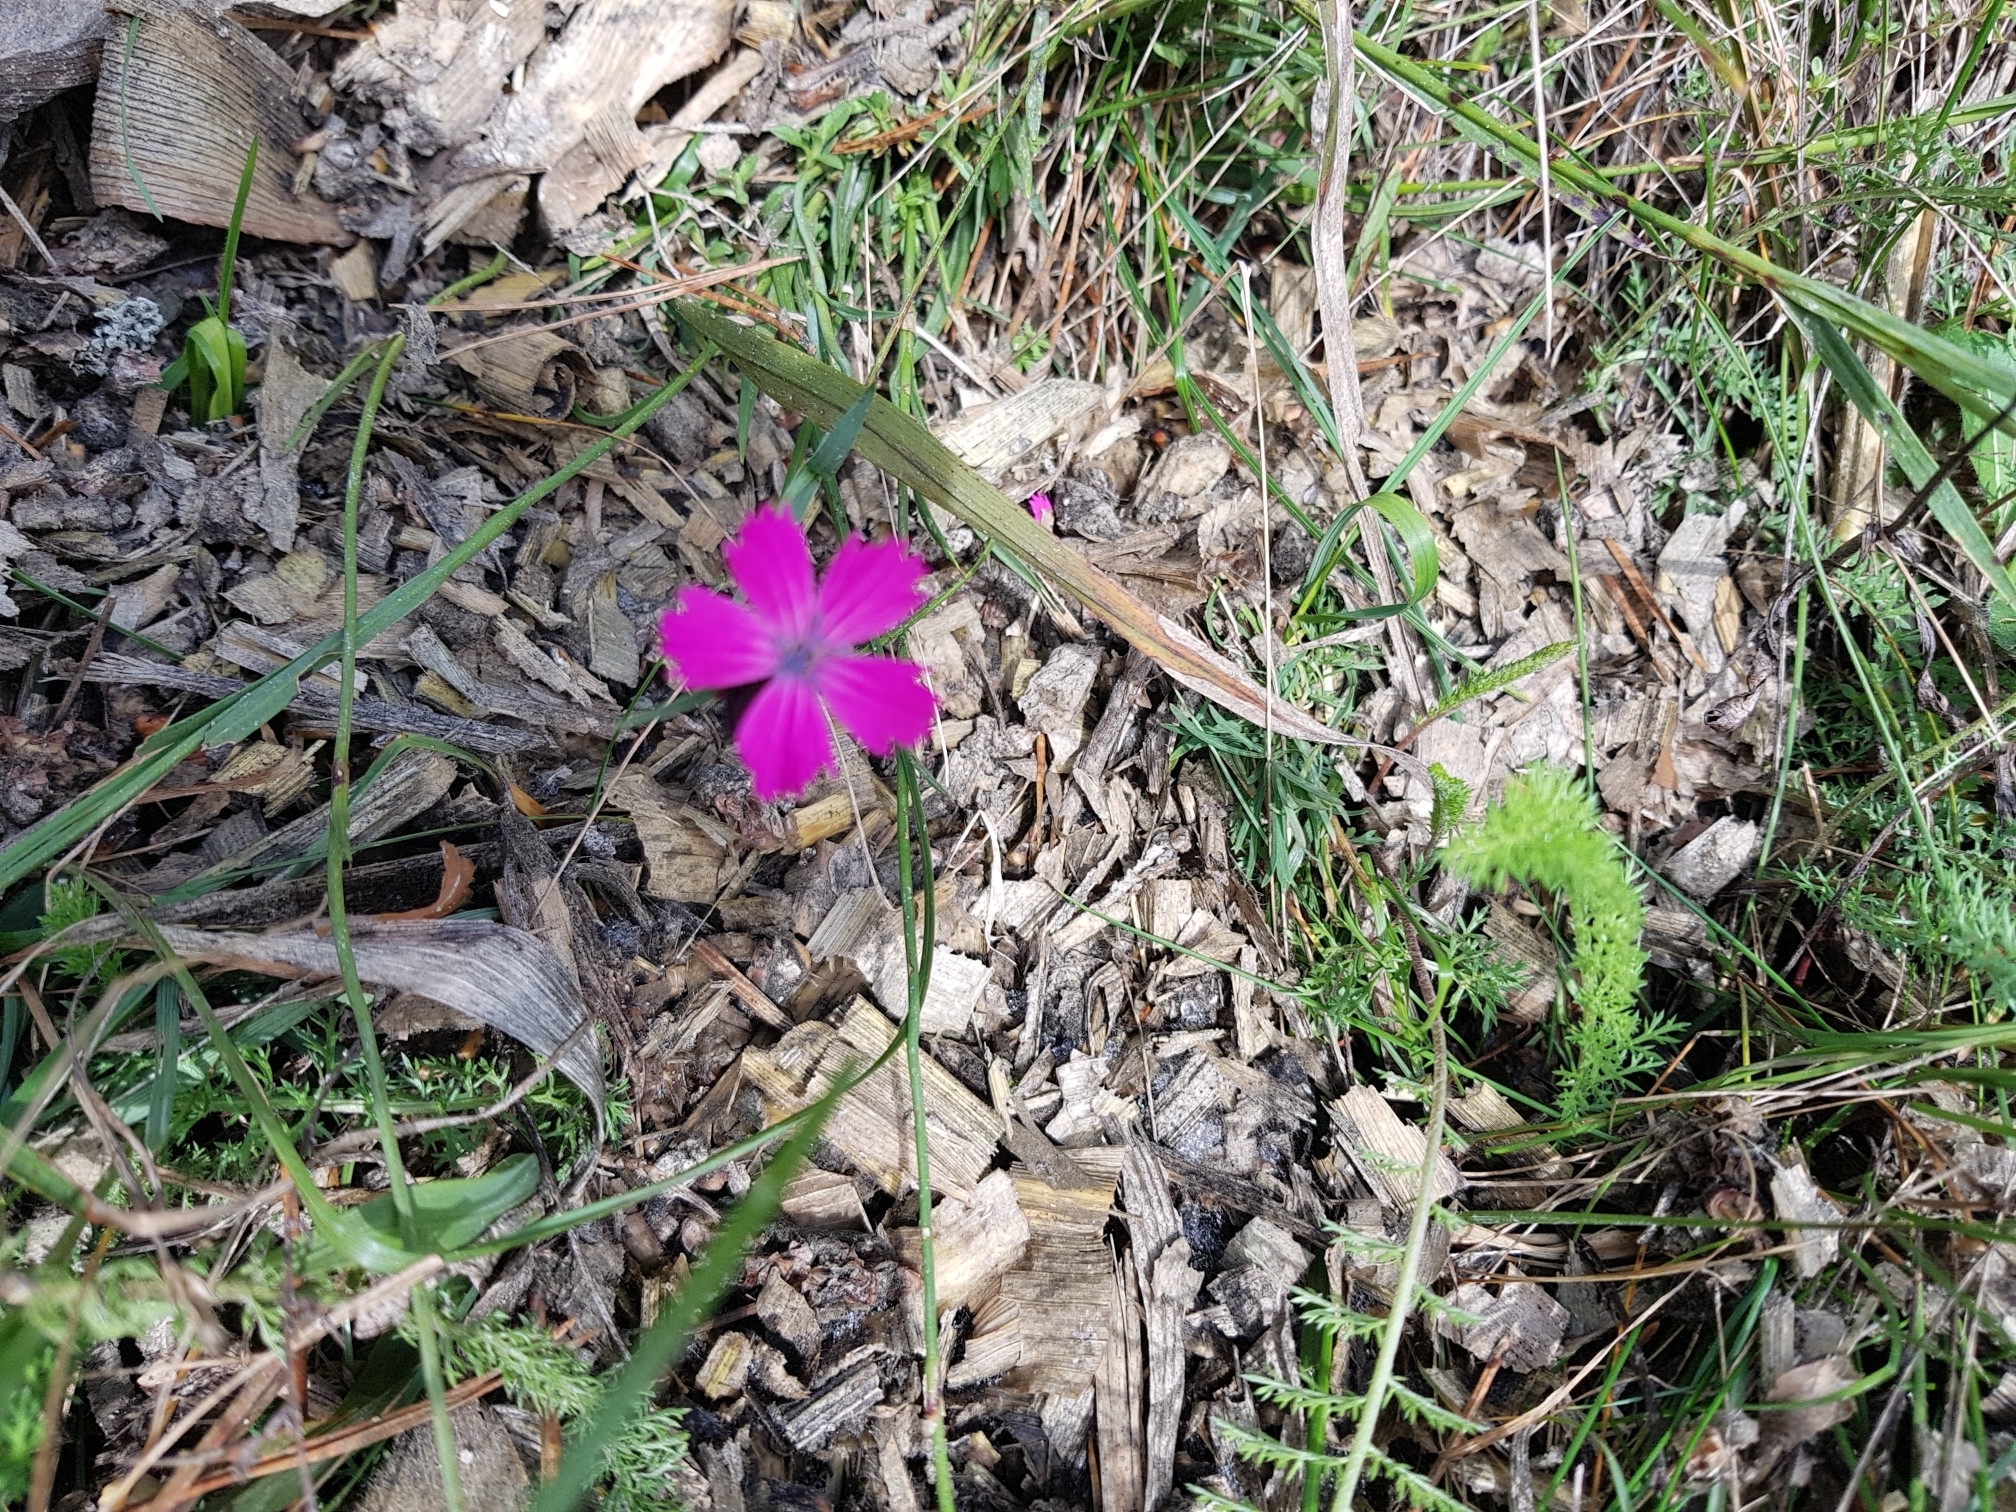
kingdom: Plantae
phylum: Tracheophyta
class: Magnoliopsida
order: Caryophyllales
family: Caryophyllaceae
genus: Dianthus
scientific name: Dianthus carthusianorum
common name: Carthusian pink
